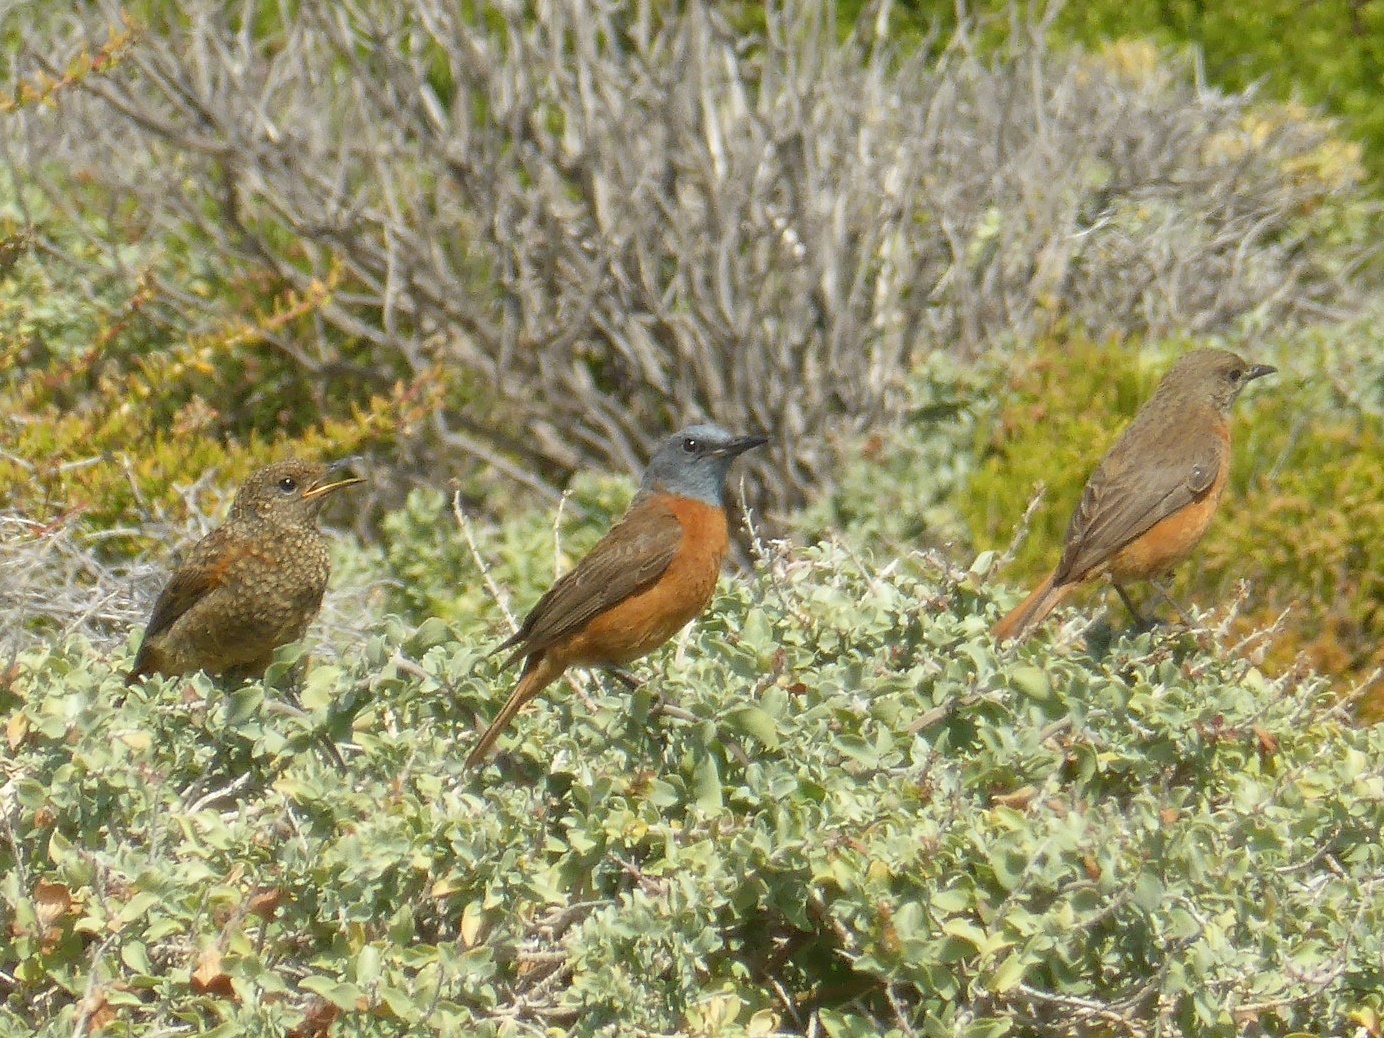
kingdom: Animalia
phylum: Chordata
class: Aves
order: Passeriformes
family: Muscicapidae
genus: Monticola
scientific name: Monticola rupestris
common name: Cape rock thrush
